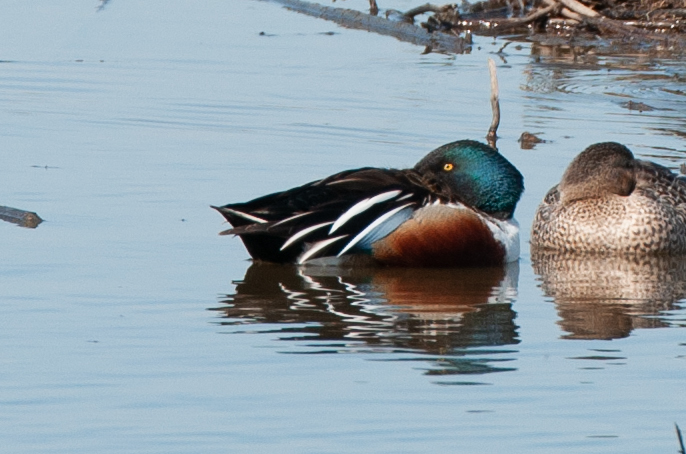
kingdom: Animalia
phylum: Chordata
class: Aves
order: Anseriformes
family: Anatidae
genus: Spatula
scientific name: Spatula clypeata
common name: Northern shoveler
